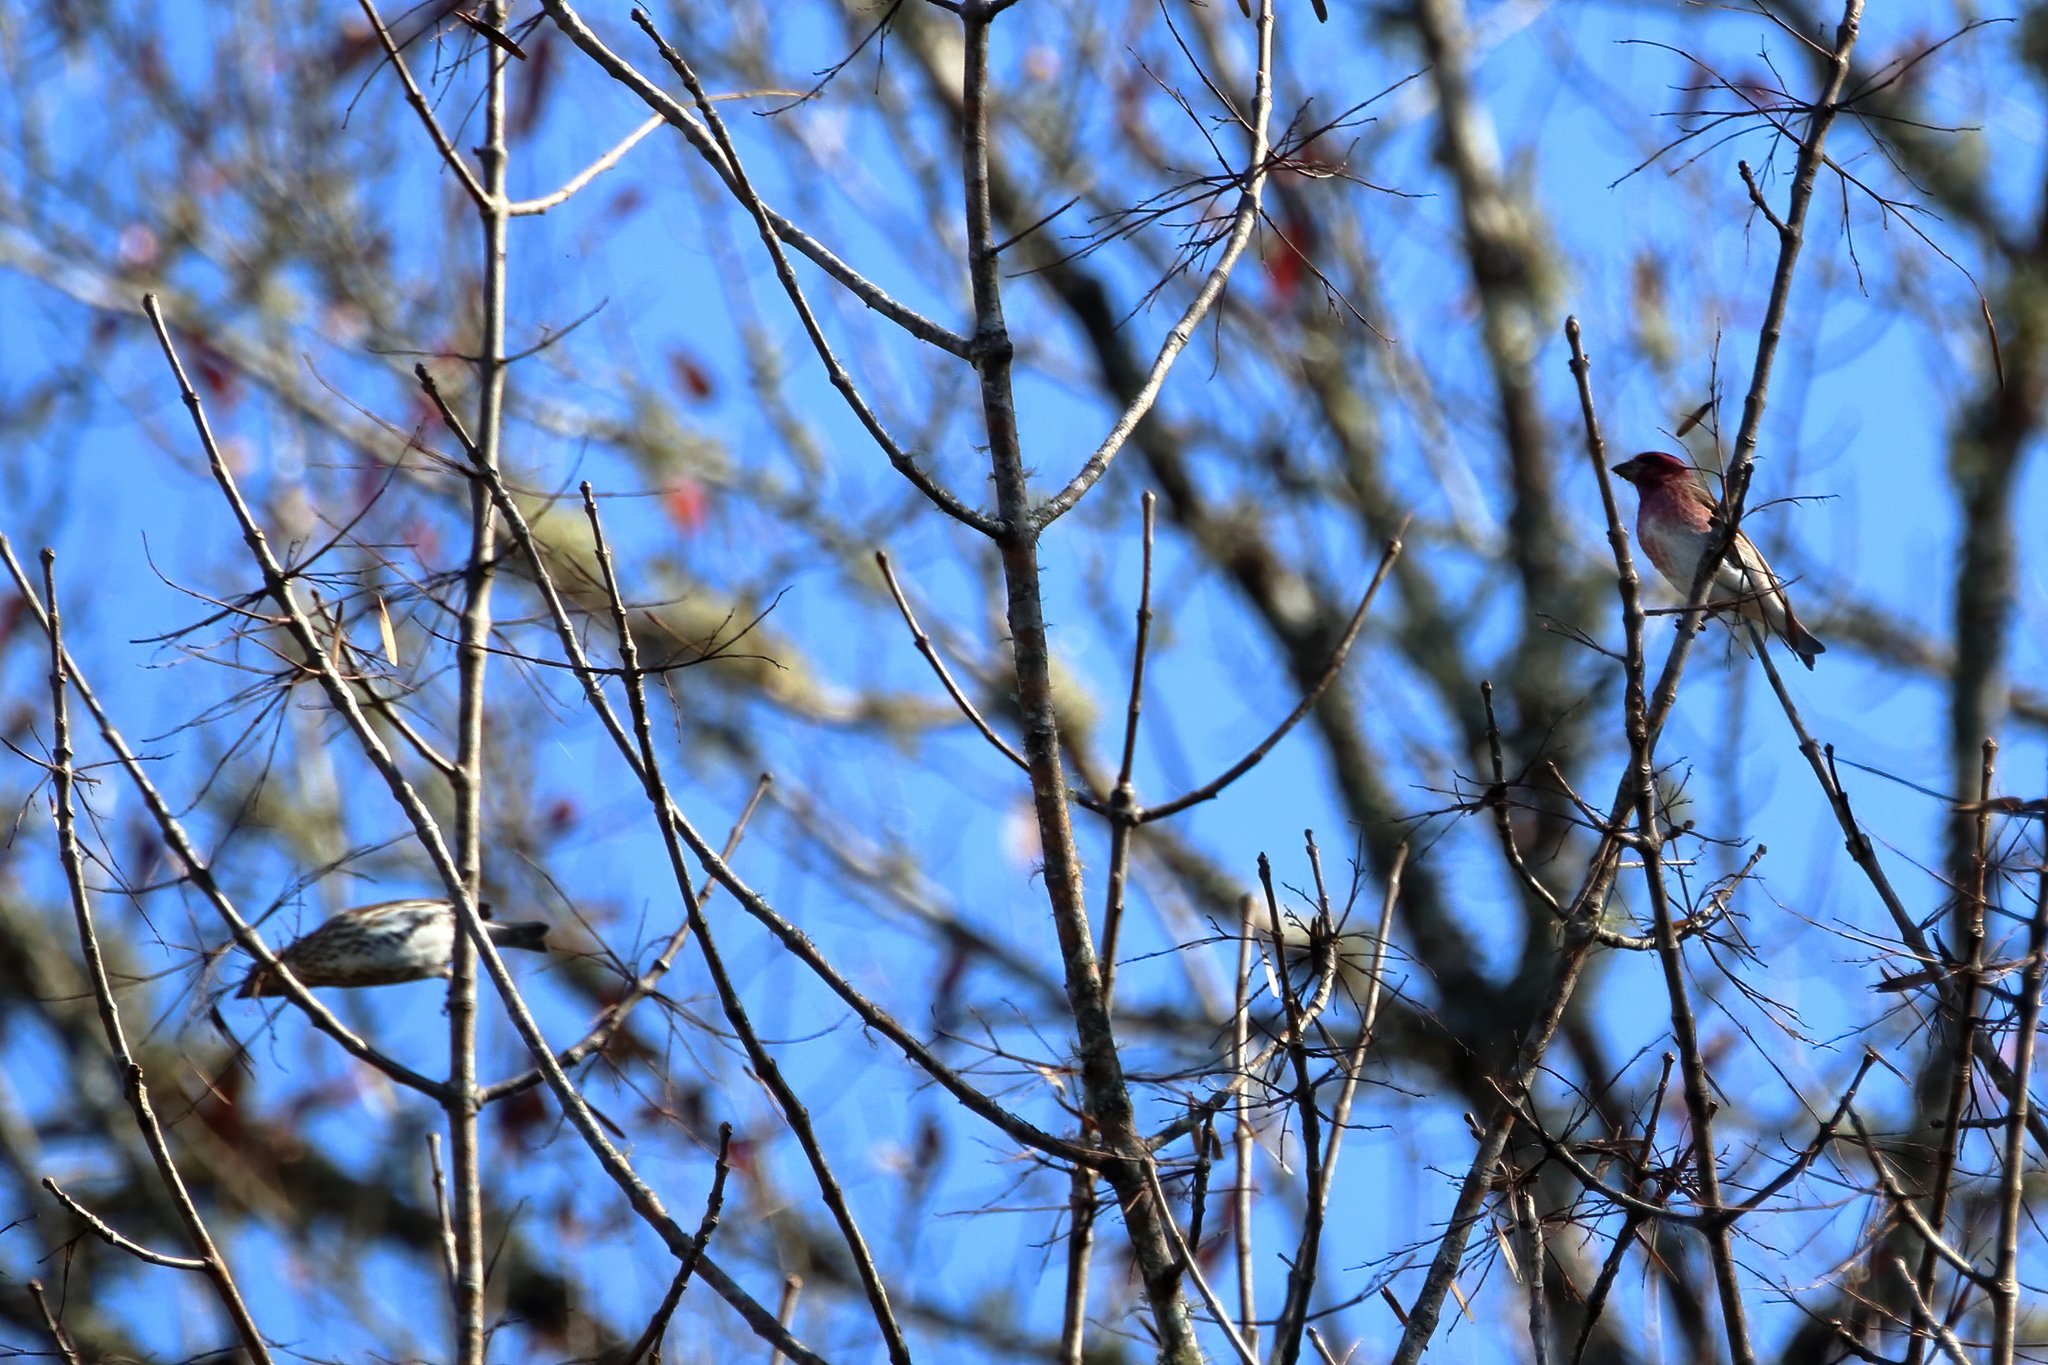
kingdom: Animalia
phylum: Chordata
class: Aves
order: Passeriformes
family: Fringillidae
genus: Haemorhous
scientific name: Haemorhous purpureus
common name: Purple finch
